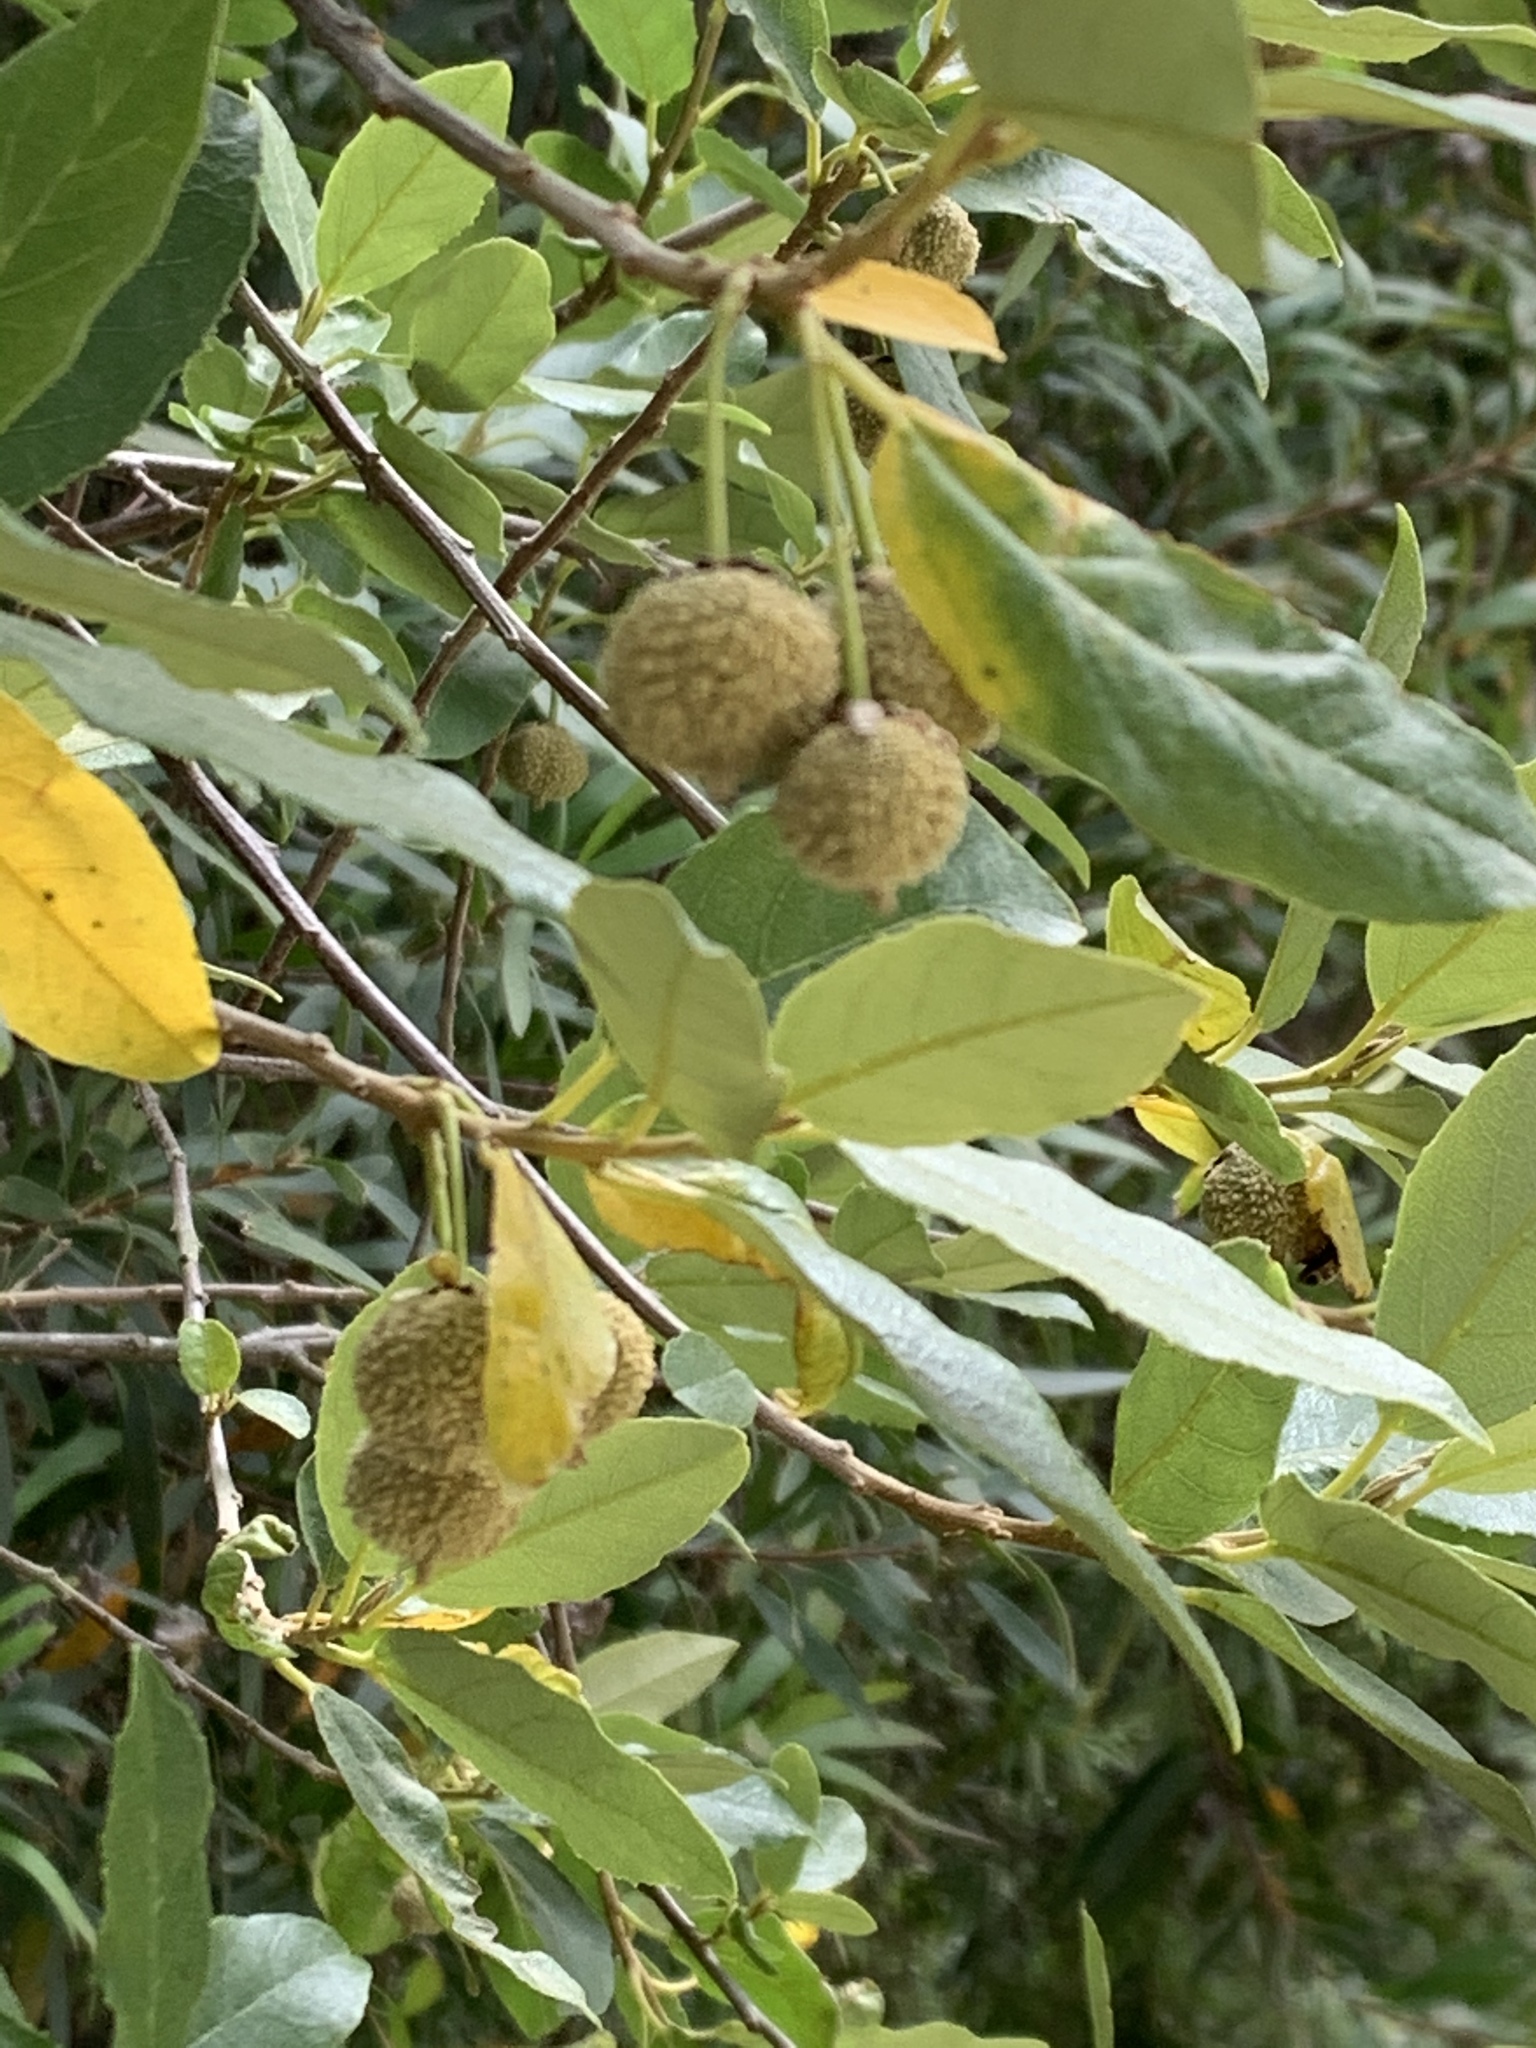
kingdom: Plantae
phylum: Tracheophyta
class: Magnoliopsida
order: Malpighiales
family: Achariaceae
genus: Kiggelaria
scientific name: Kiggelaria africana
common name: Wild peach
